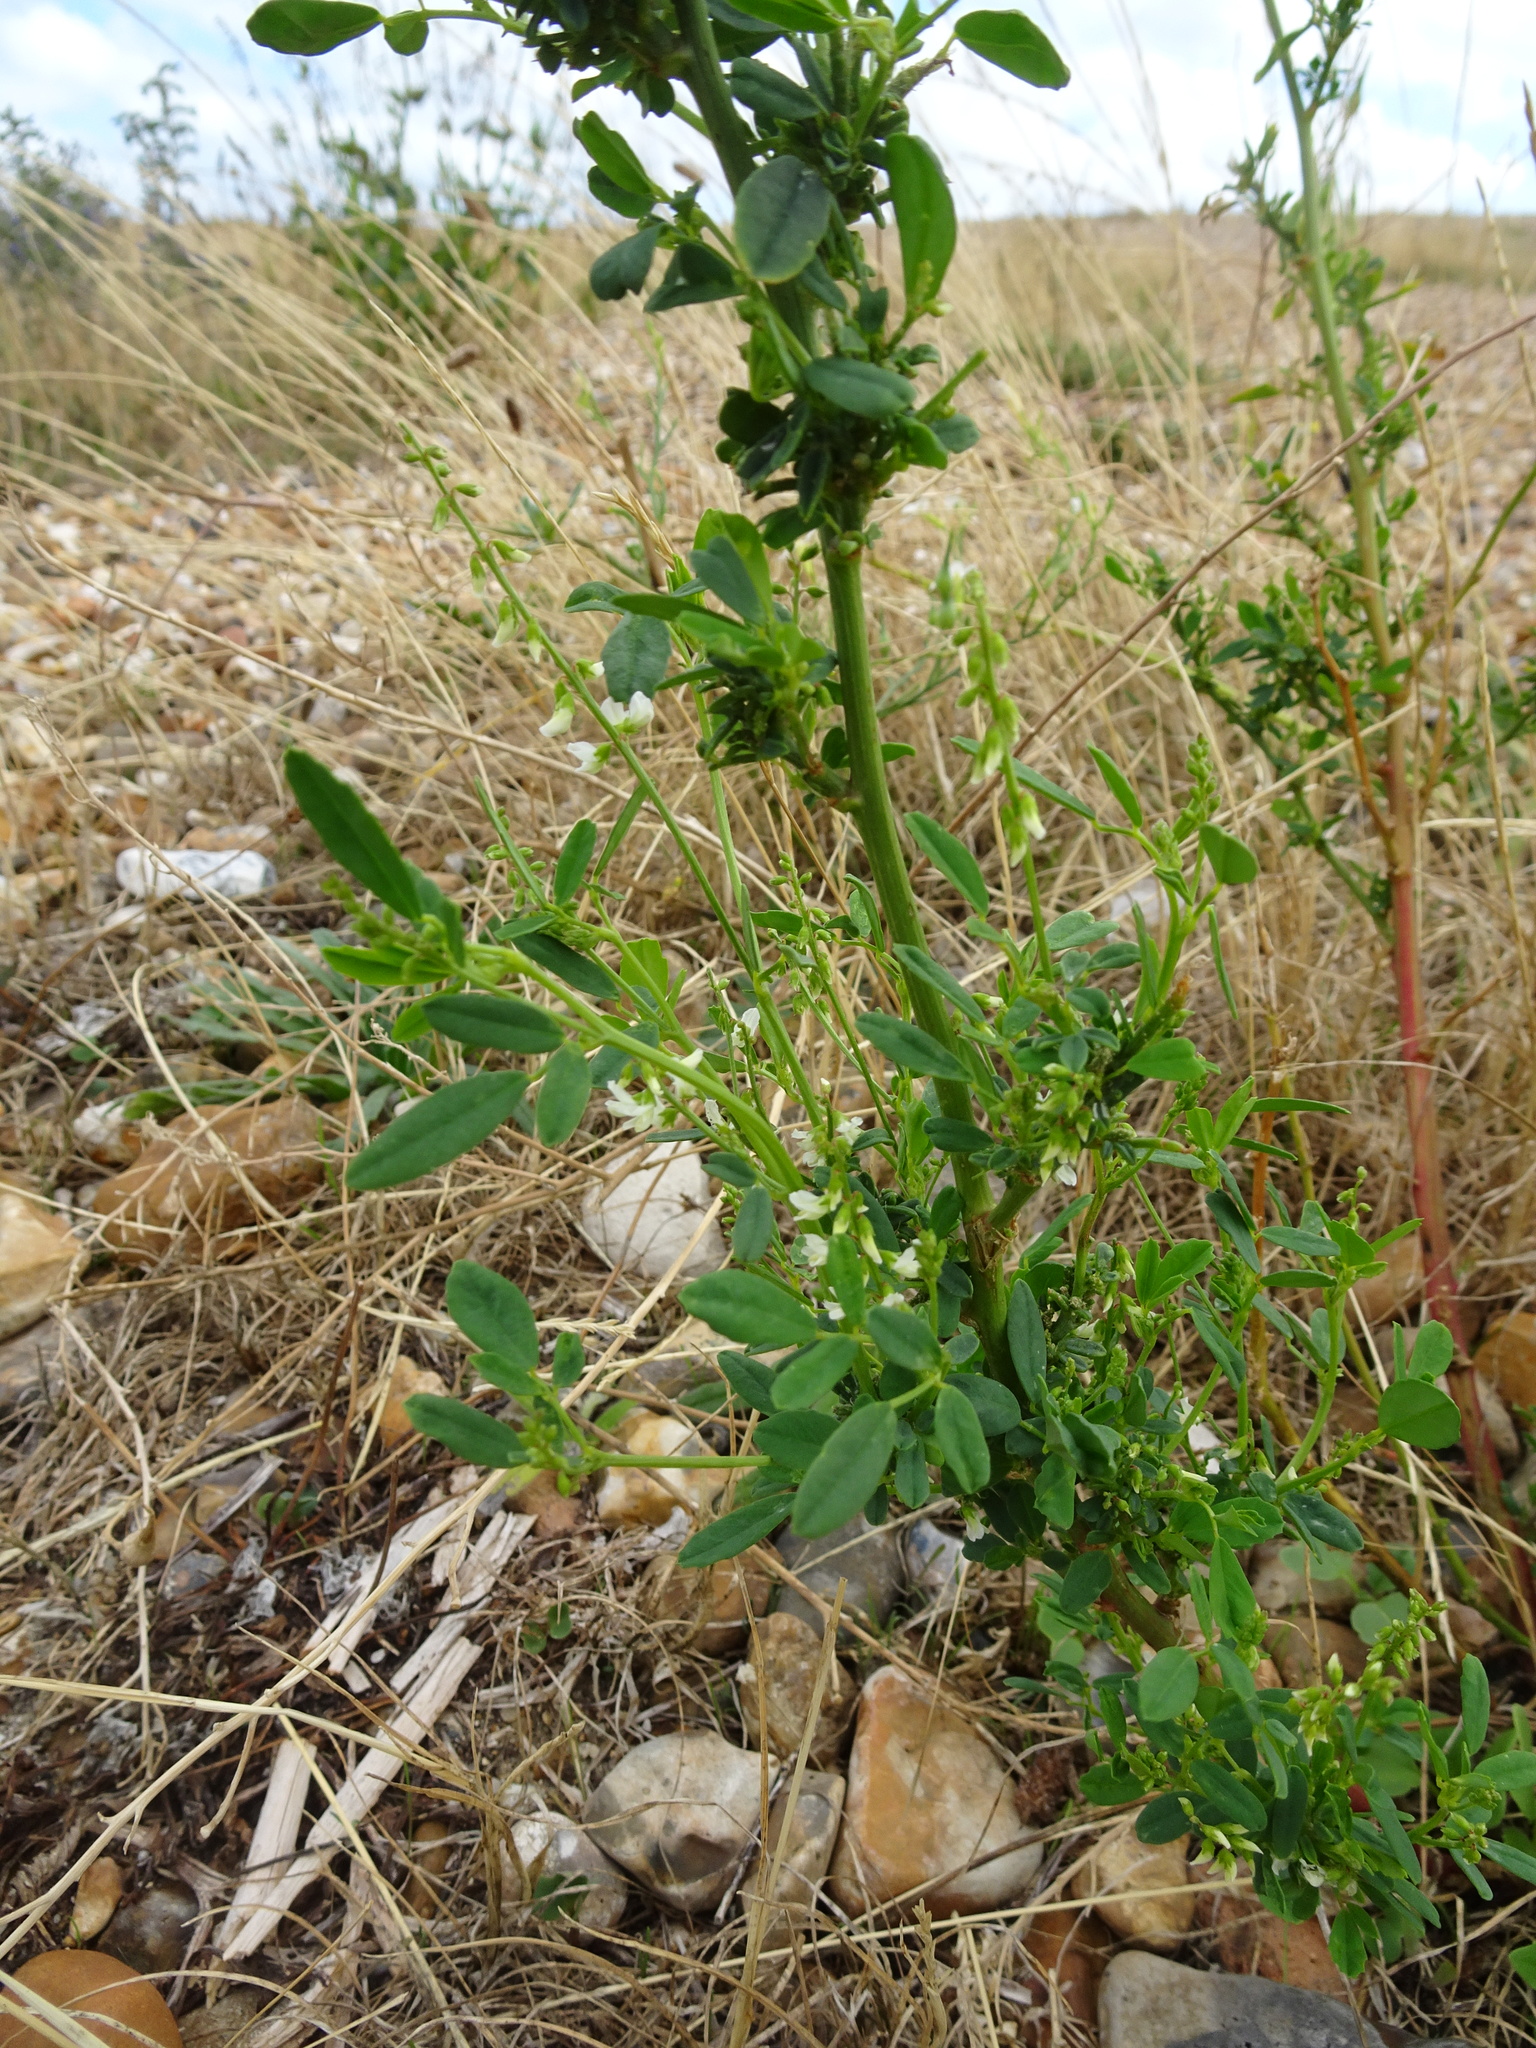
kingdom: Plantae
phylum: Tracheophyta
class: Magnoliopsida
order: Fabales
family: Fabaceae
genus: Melilotus
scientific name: Melilotus albus
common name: White melilot
